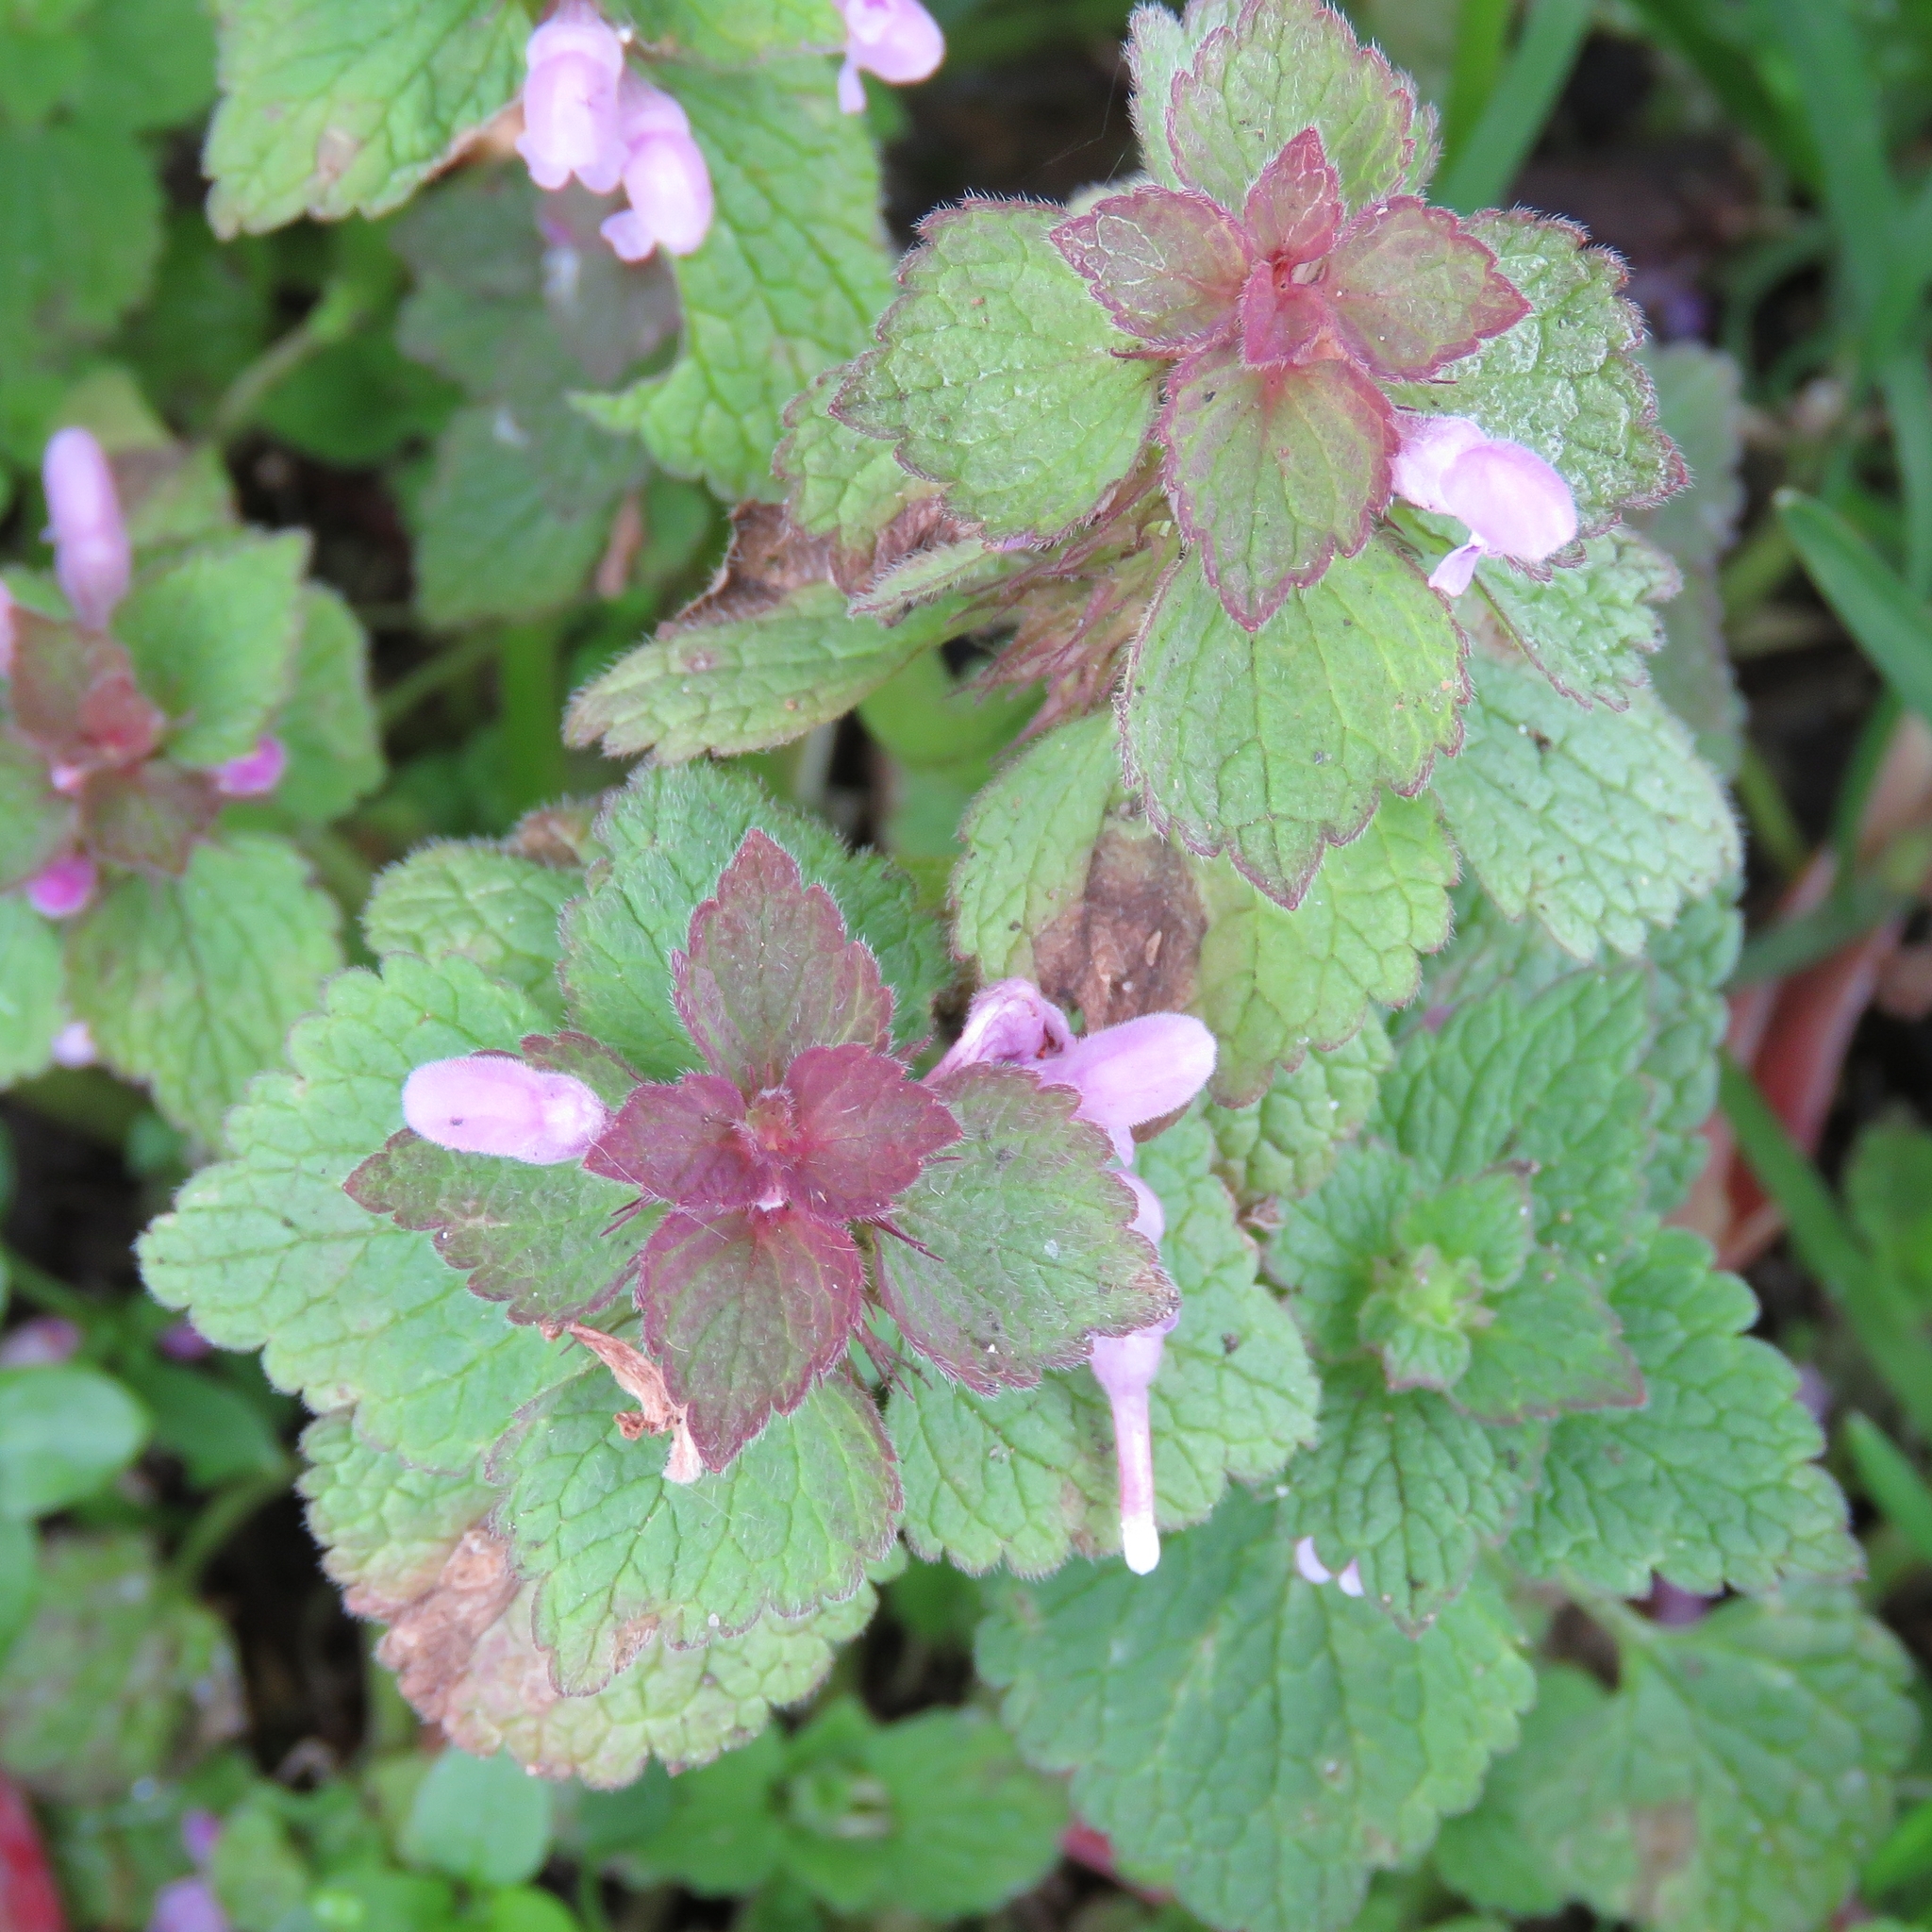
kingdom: Plantae
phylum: Tracheophyta
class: Magnoliopsida
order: Lamiales
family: Lamiaceae
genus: Lamium
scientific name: Lamium purpureum
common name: Red dead-nettle
